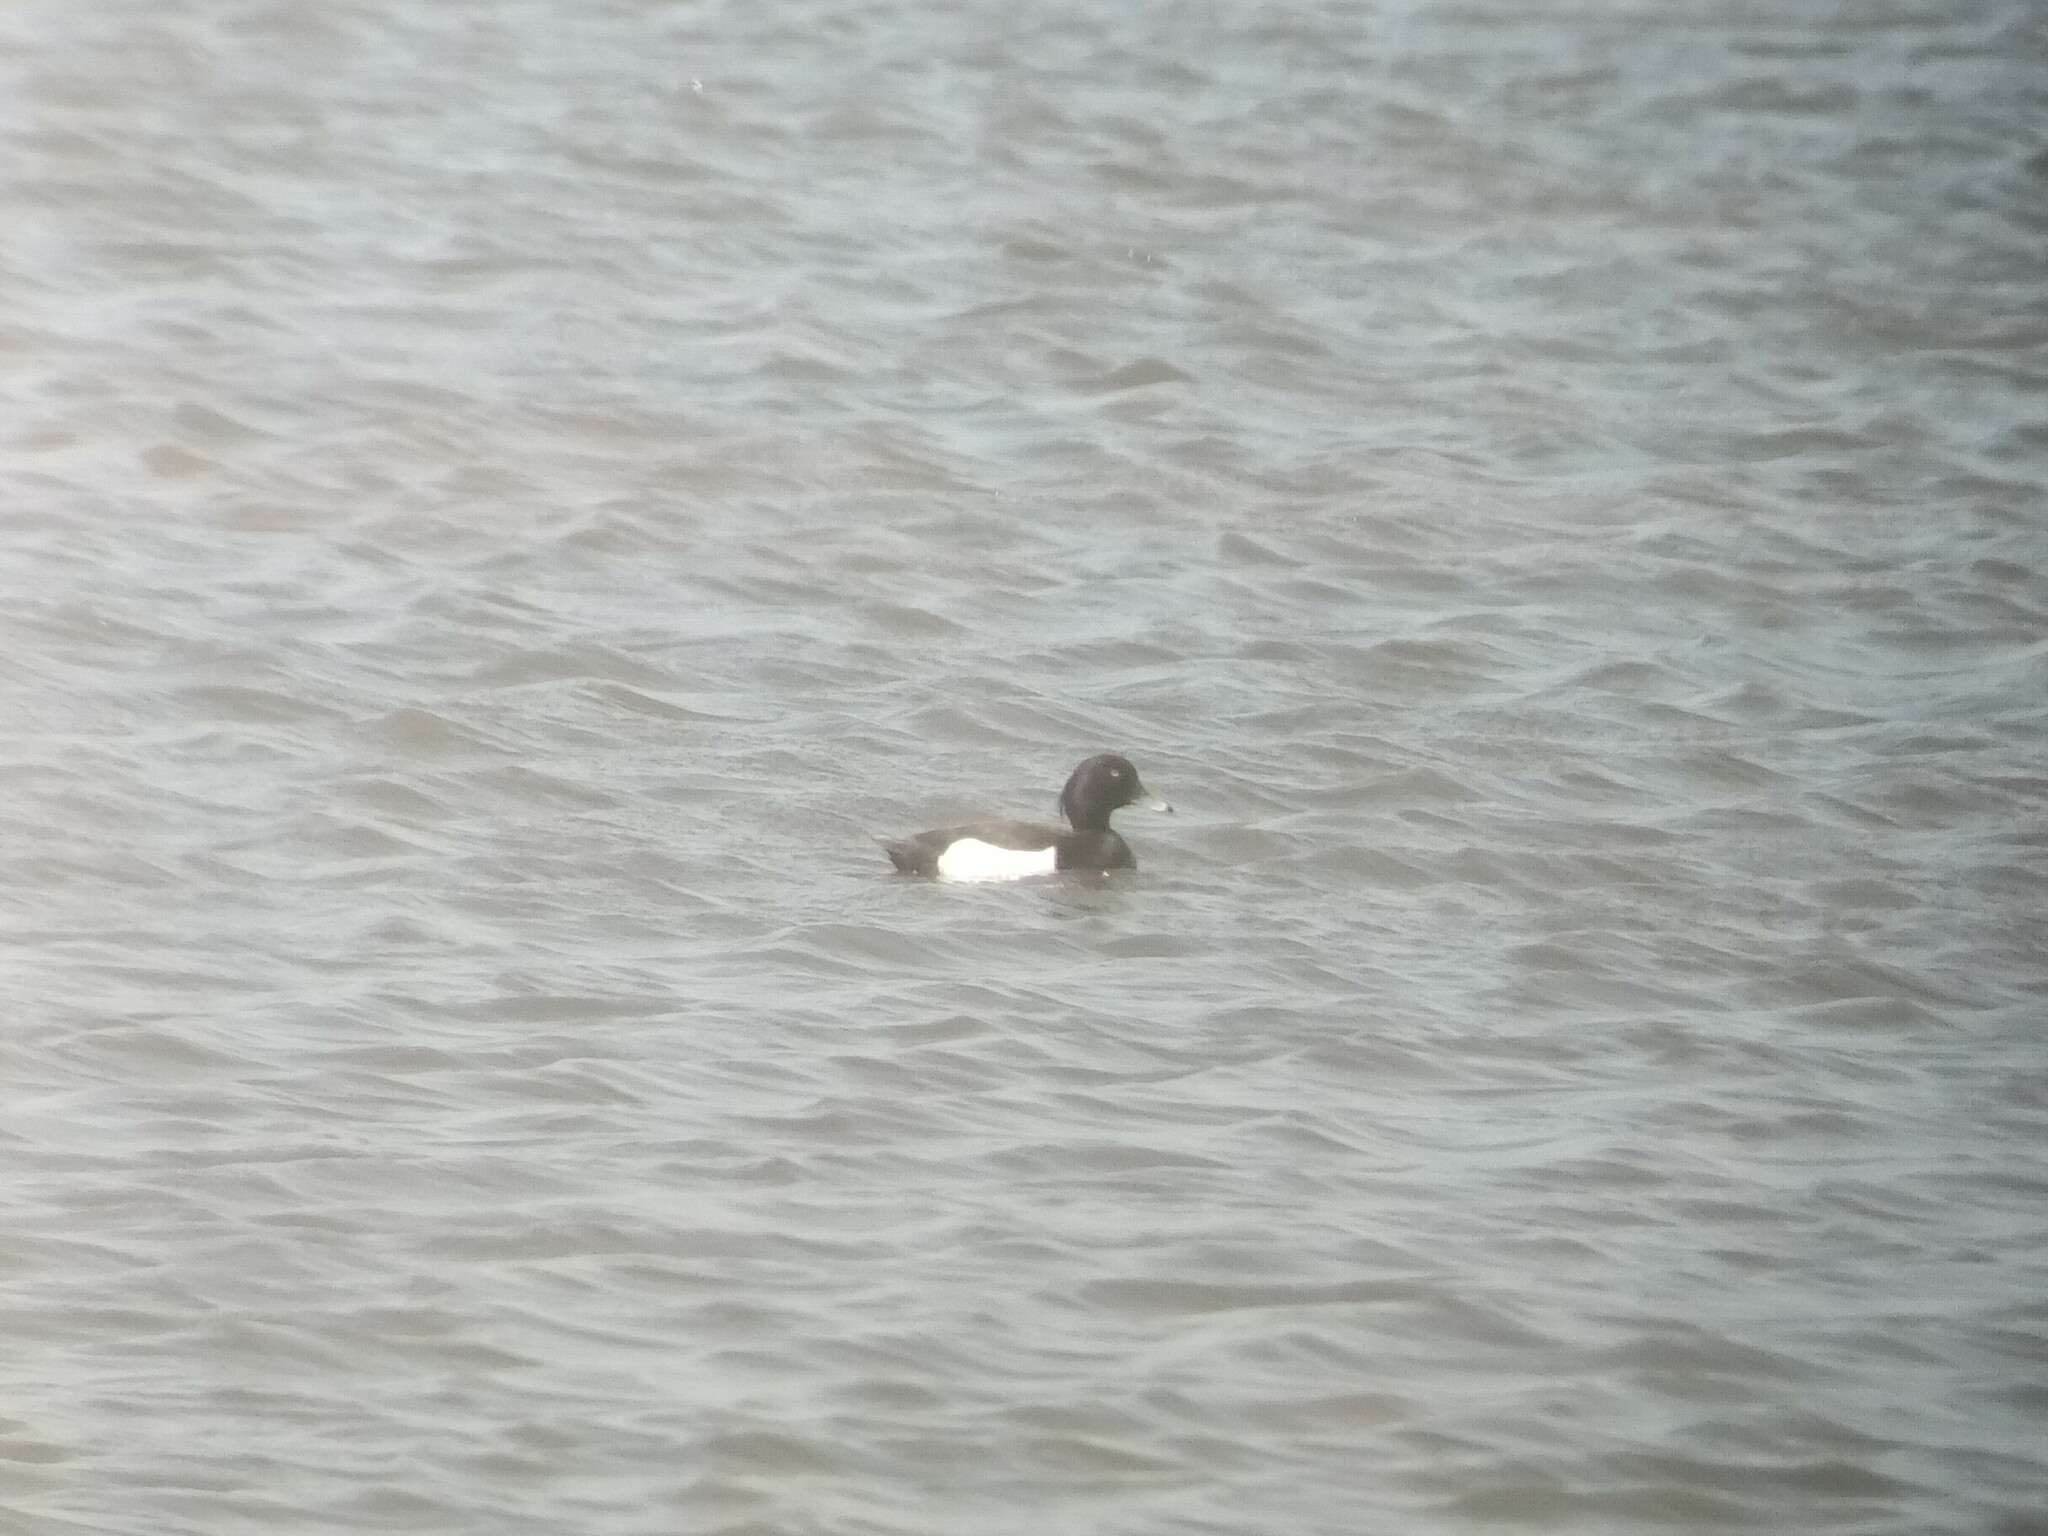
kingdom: Animalia
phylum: Chordata
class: Aves
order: Anseriformes
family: Anatidae
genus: Aythya
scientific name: Aythya fuligula
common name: Tufted duck
